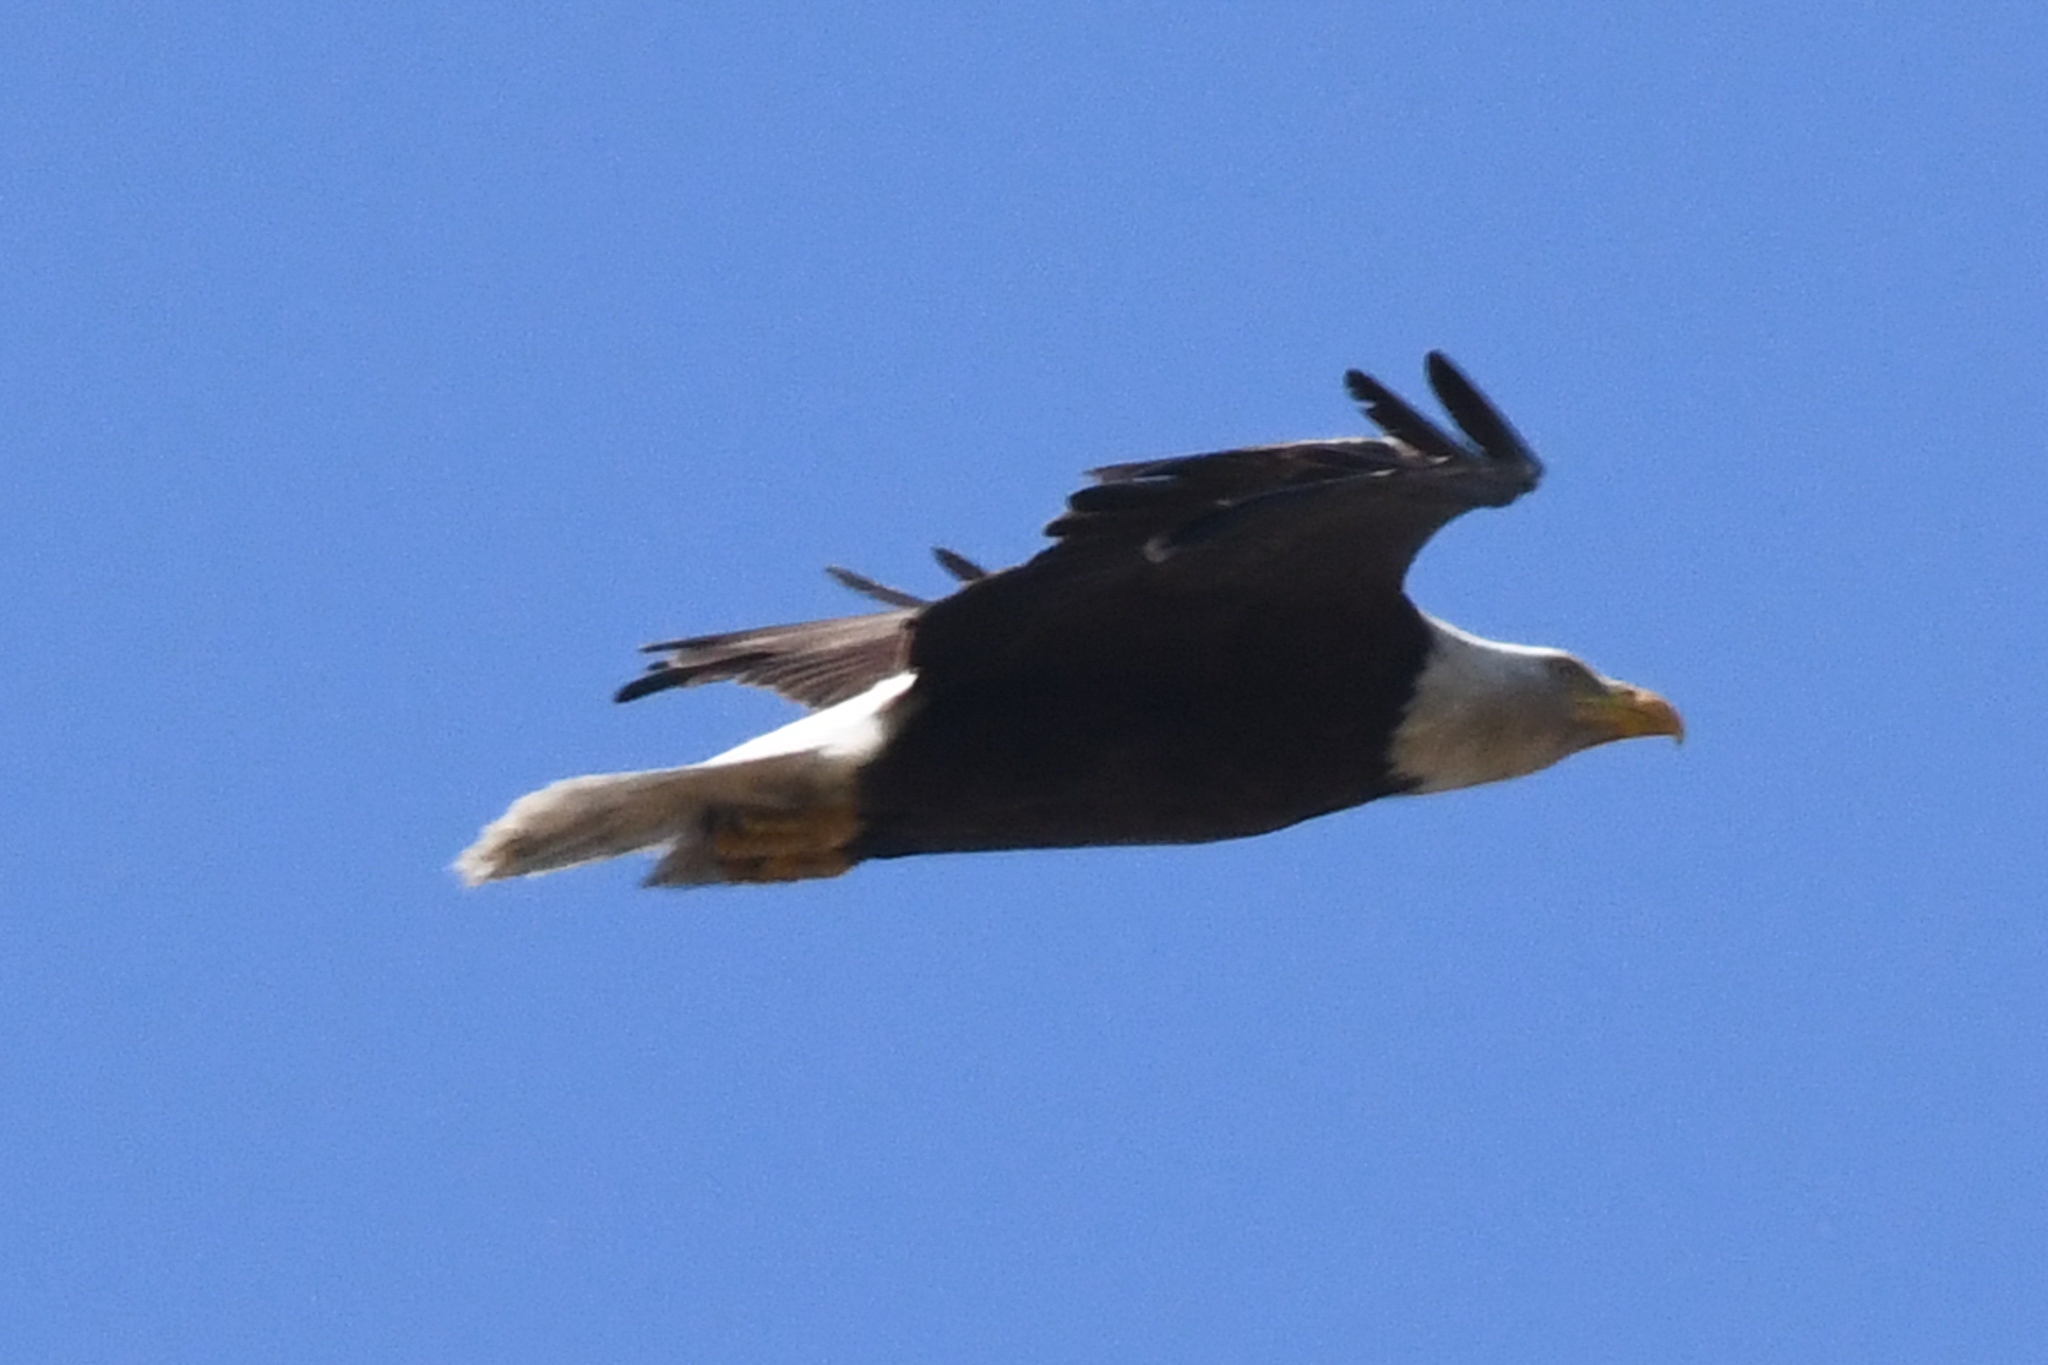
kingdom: Animalia
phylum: Chordata
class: Aves
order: Accipitriformes
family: Accipitridae
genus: Haliaeetus
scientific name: Haliaeetus leucocephalus
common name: Bald eagle
